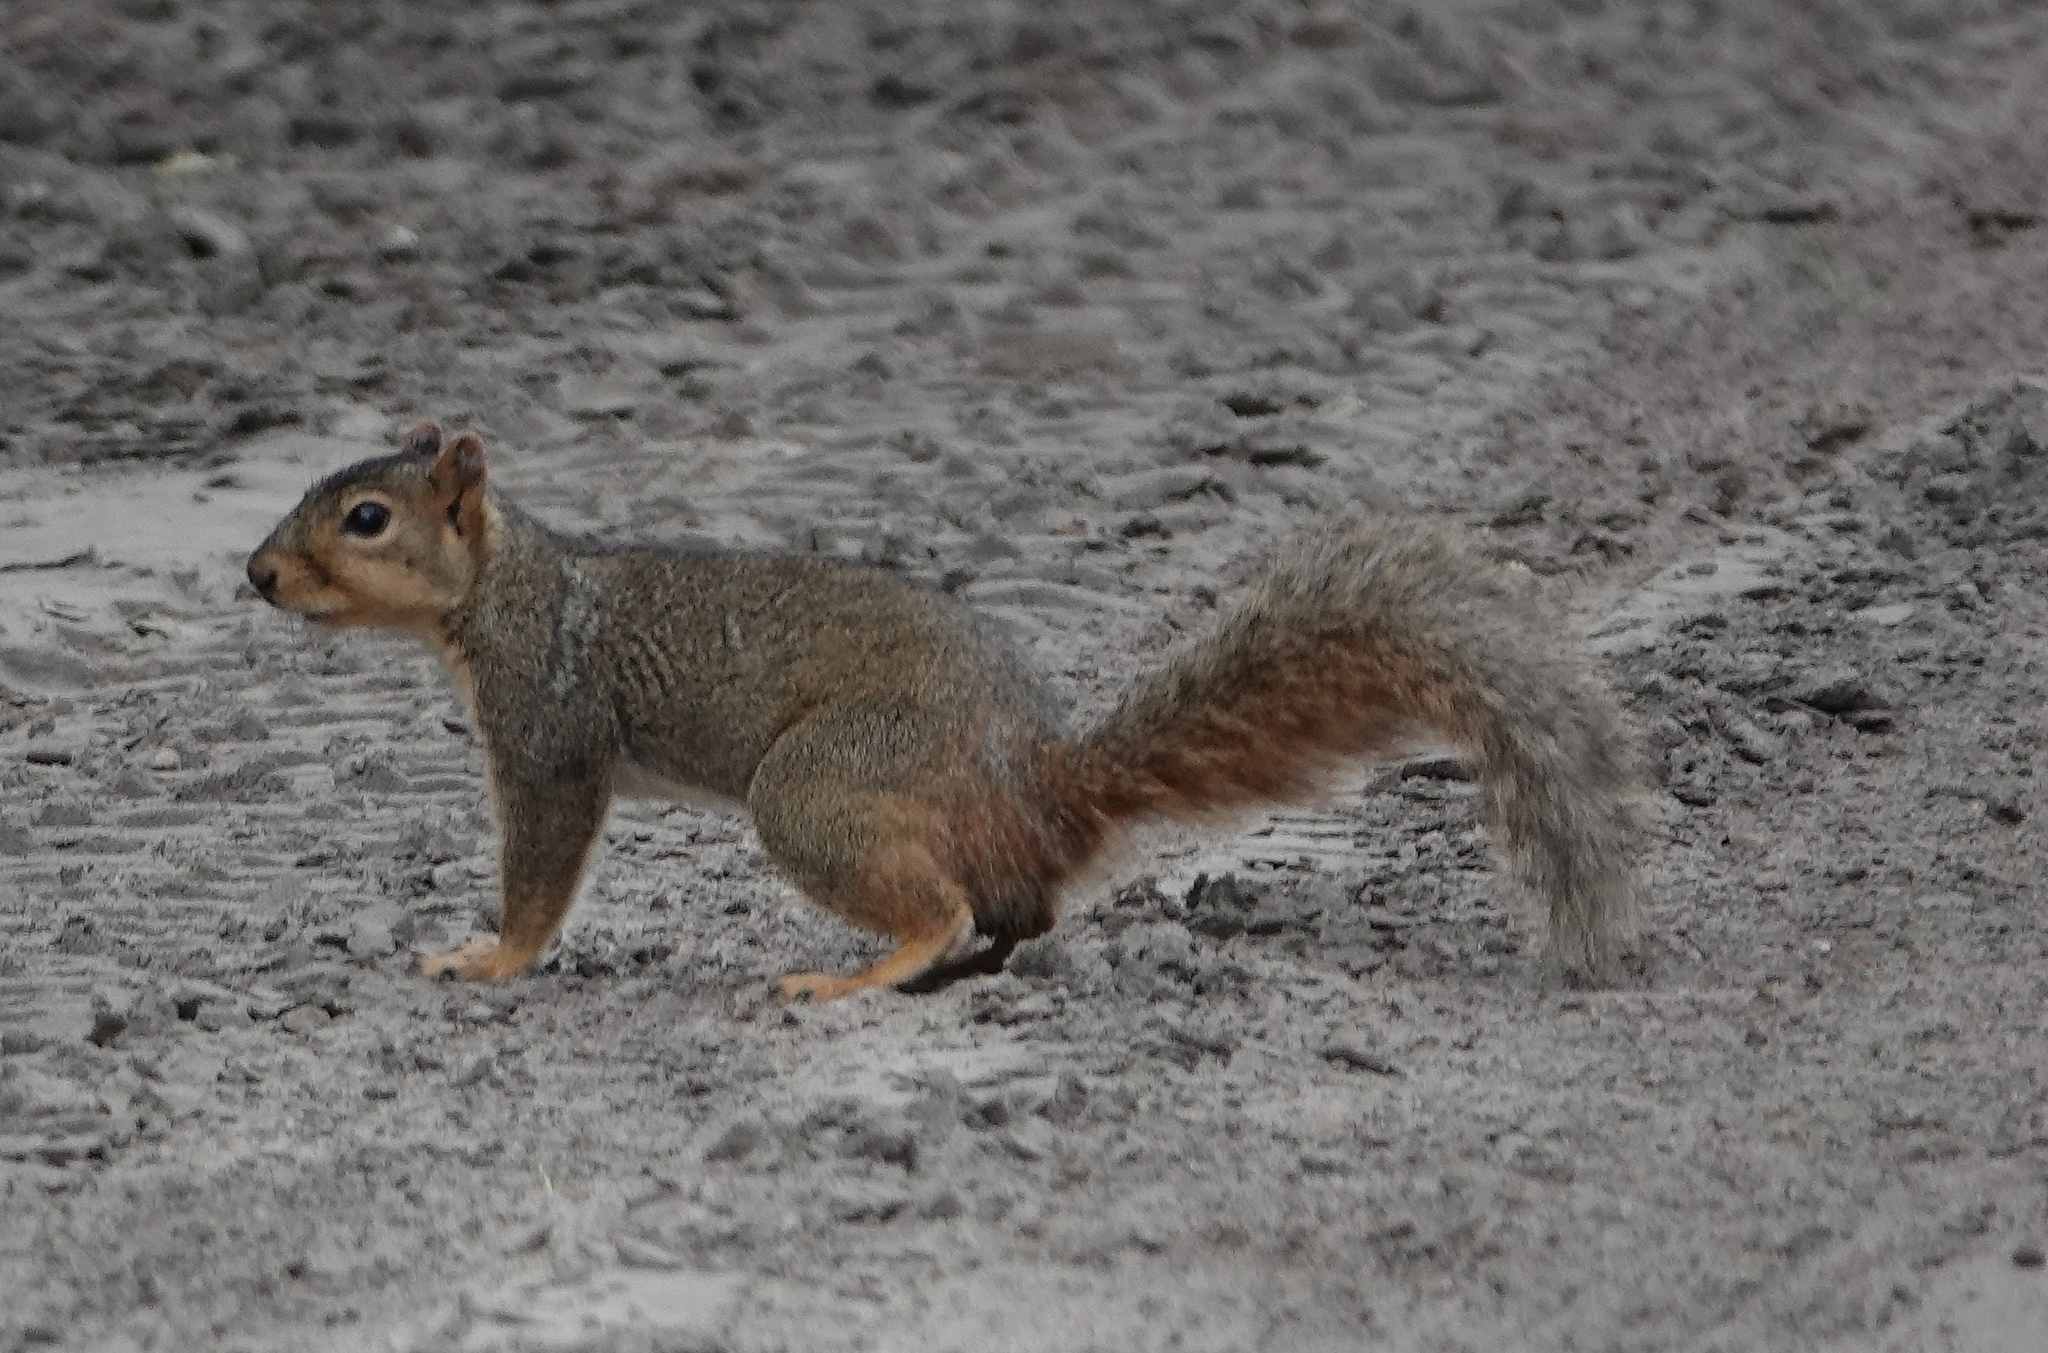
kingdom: Animalia
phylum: Chordata
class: Mammalia
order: Rodentia
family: Sciuridae
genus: Sciurus
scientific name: Sciurus niger
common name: Fox squirrel
